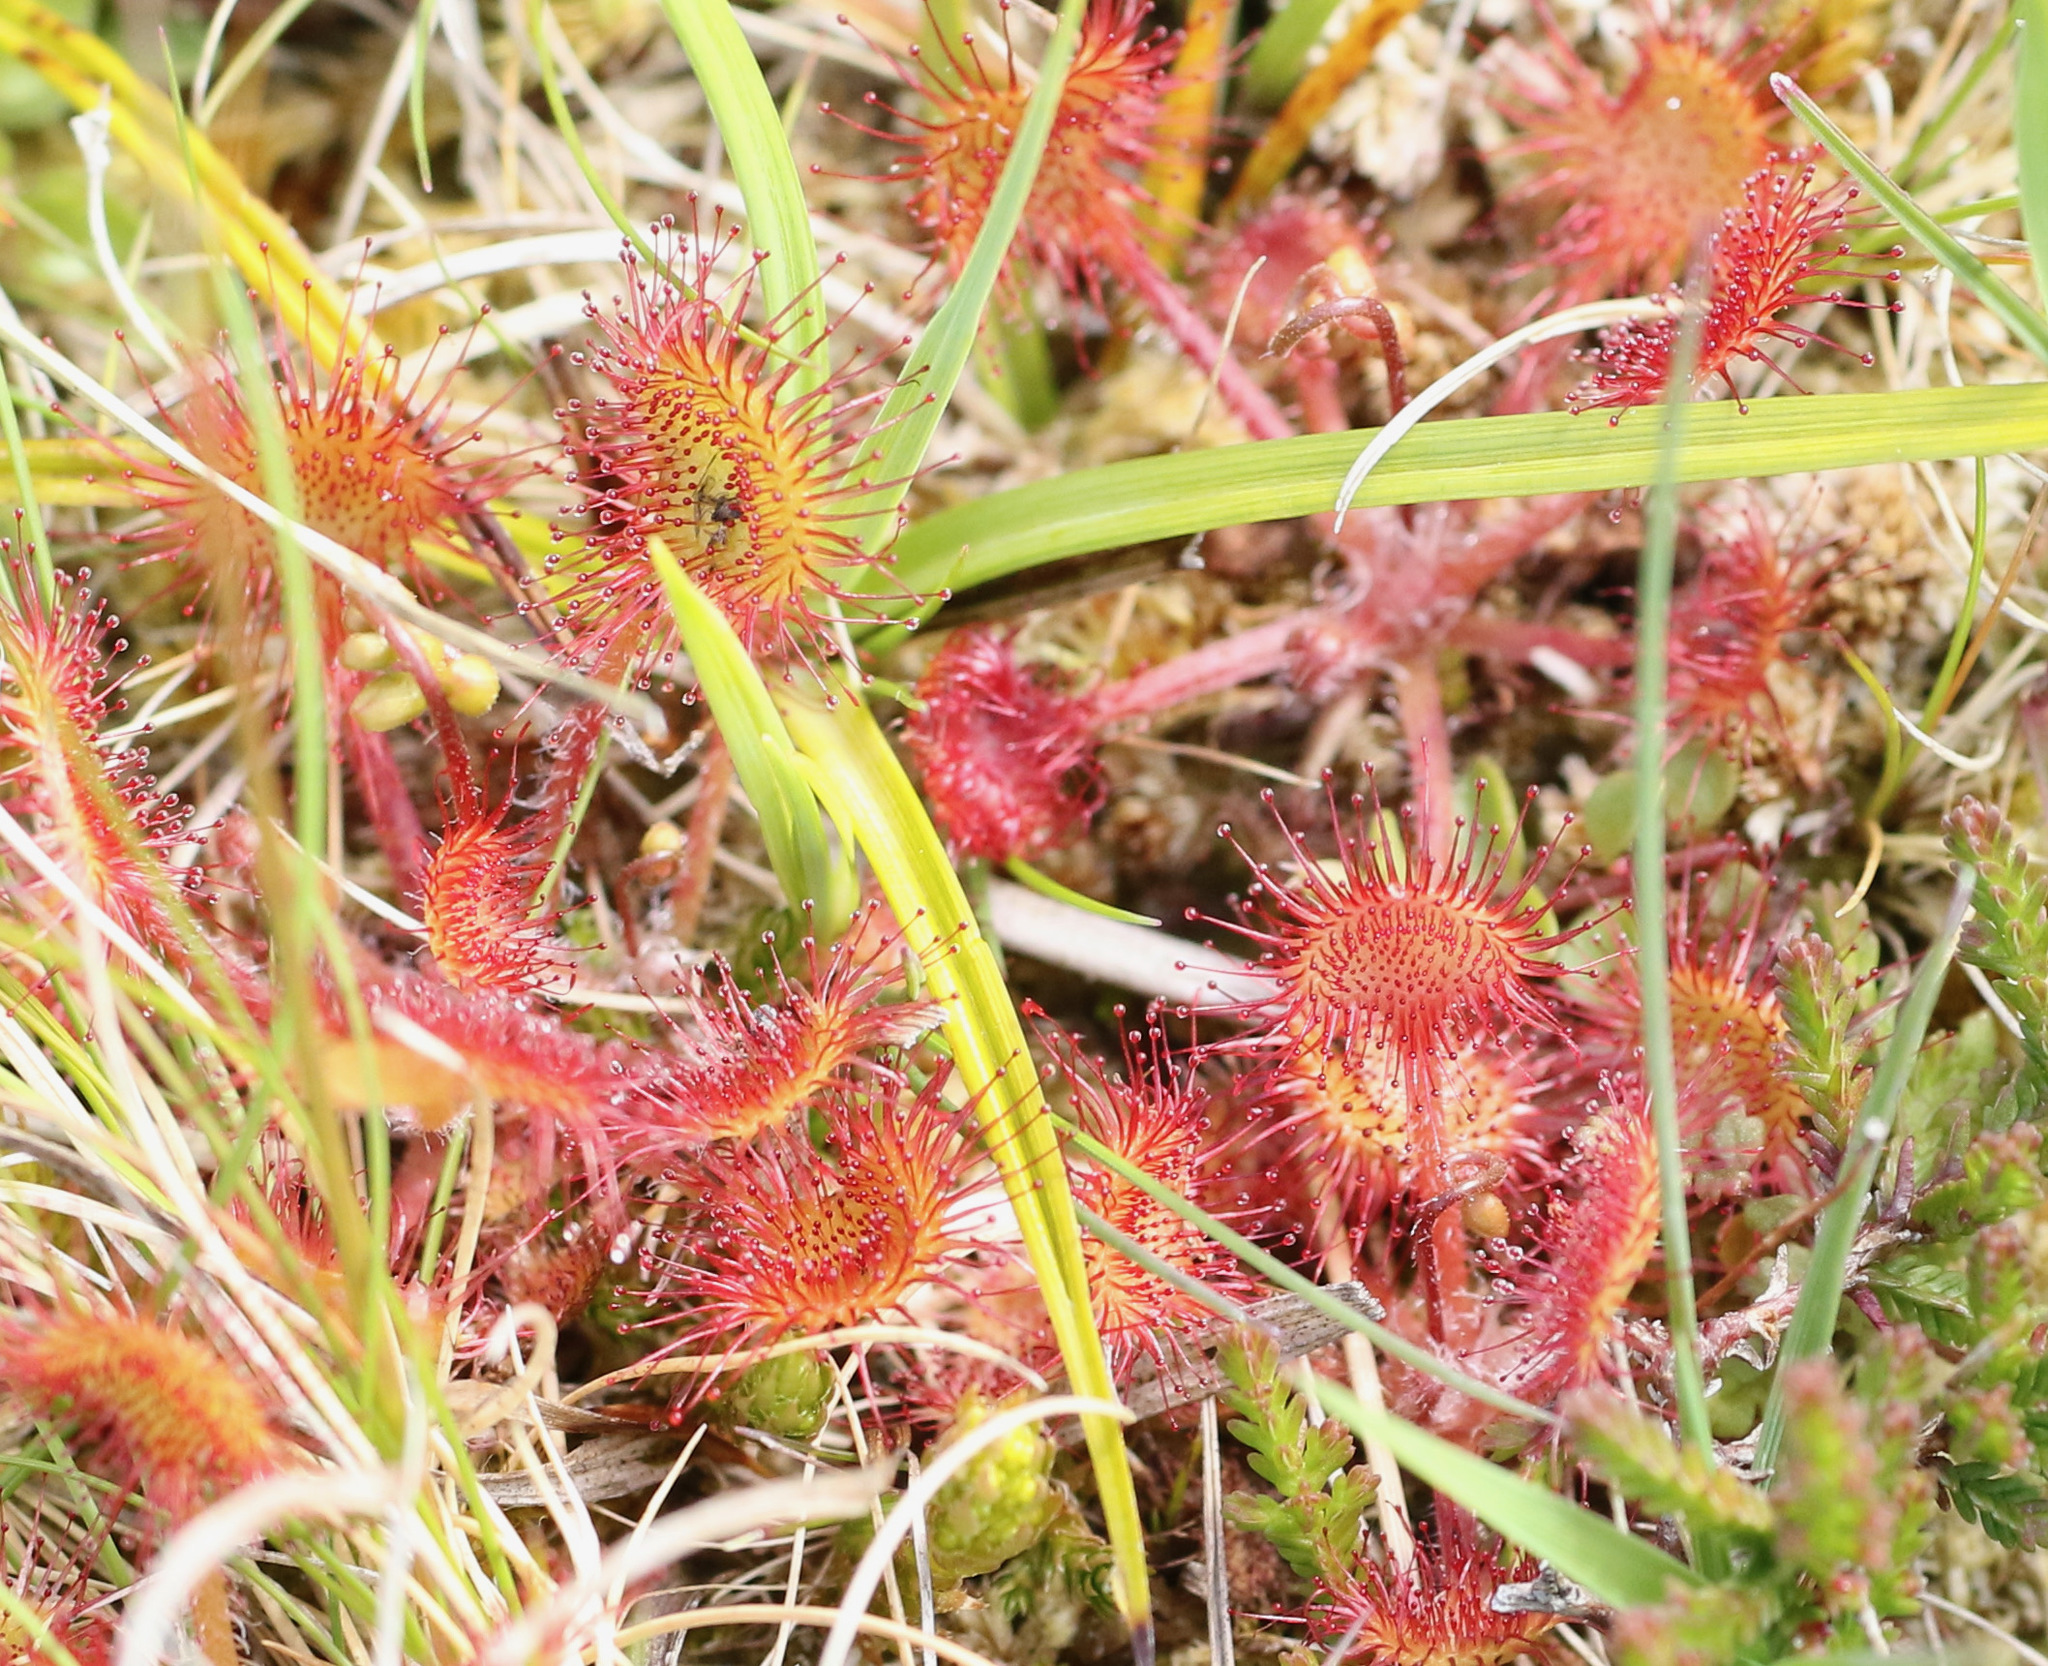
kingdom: Plantae
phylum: Tracheophyta
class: Magnoliopsida
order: Caryophyllales
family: Droseraceae
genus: Drosera
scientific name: Drosera rotundifolia
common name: Round-leaved sundew
